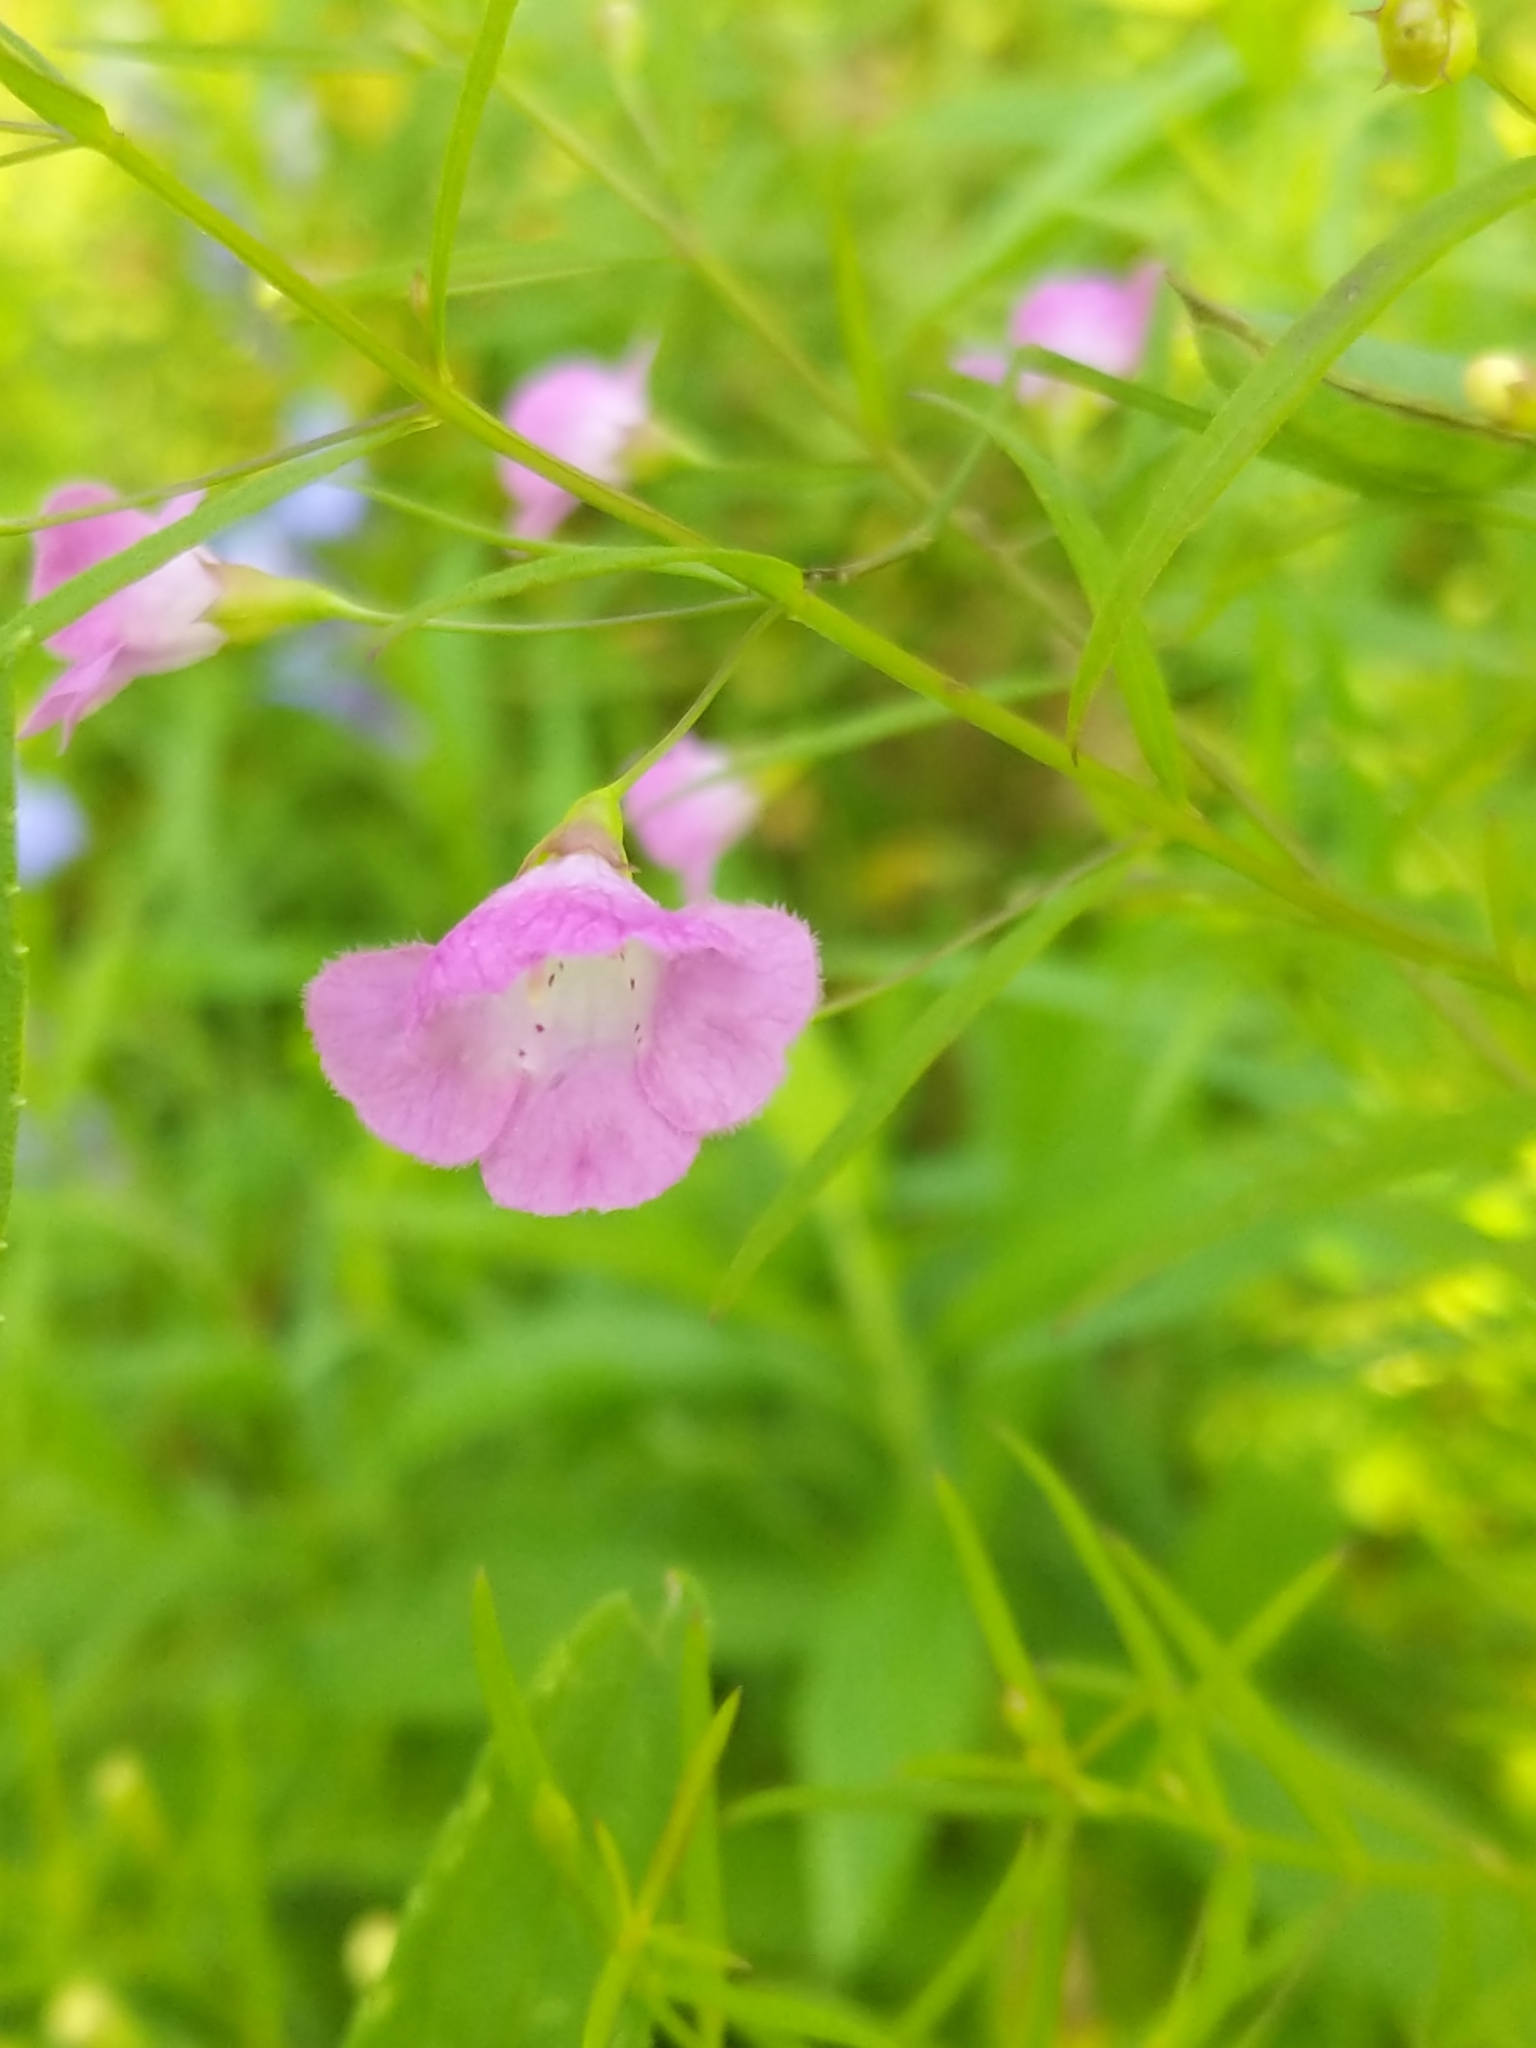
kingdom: Plantae
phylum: Tracheophyta
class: Magnoliopsida
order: Lamiales
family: Orobanchaceae
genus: Agalinis
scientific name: Agalinis tenuifolia
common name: Slender agalinis
